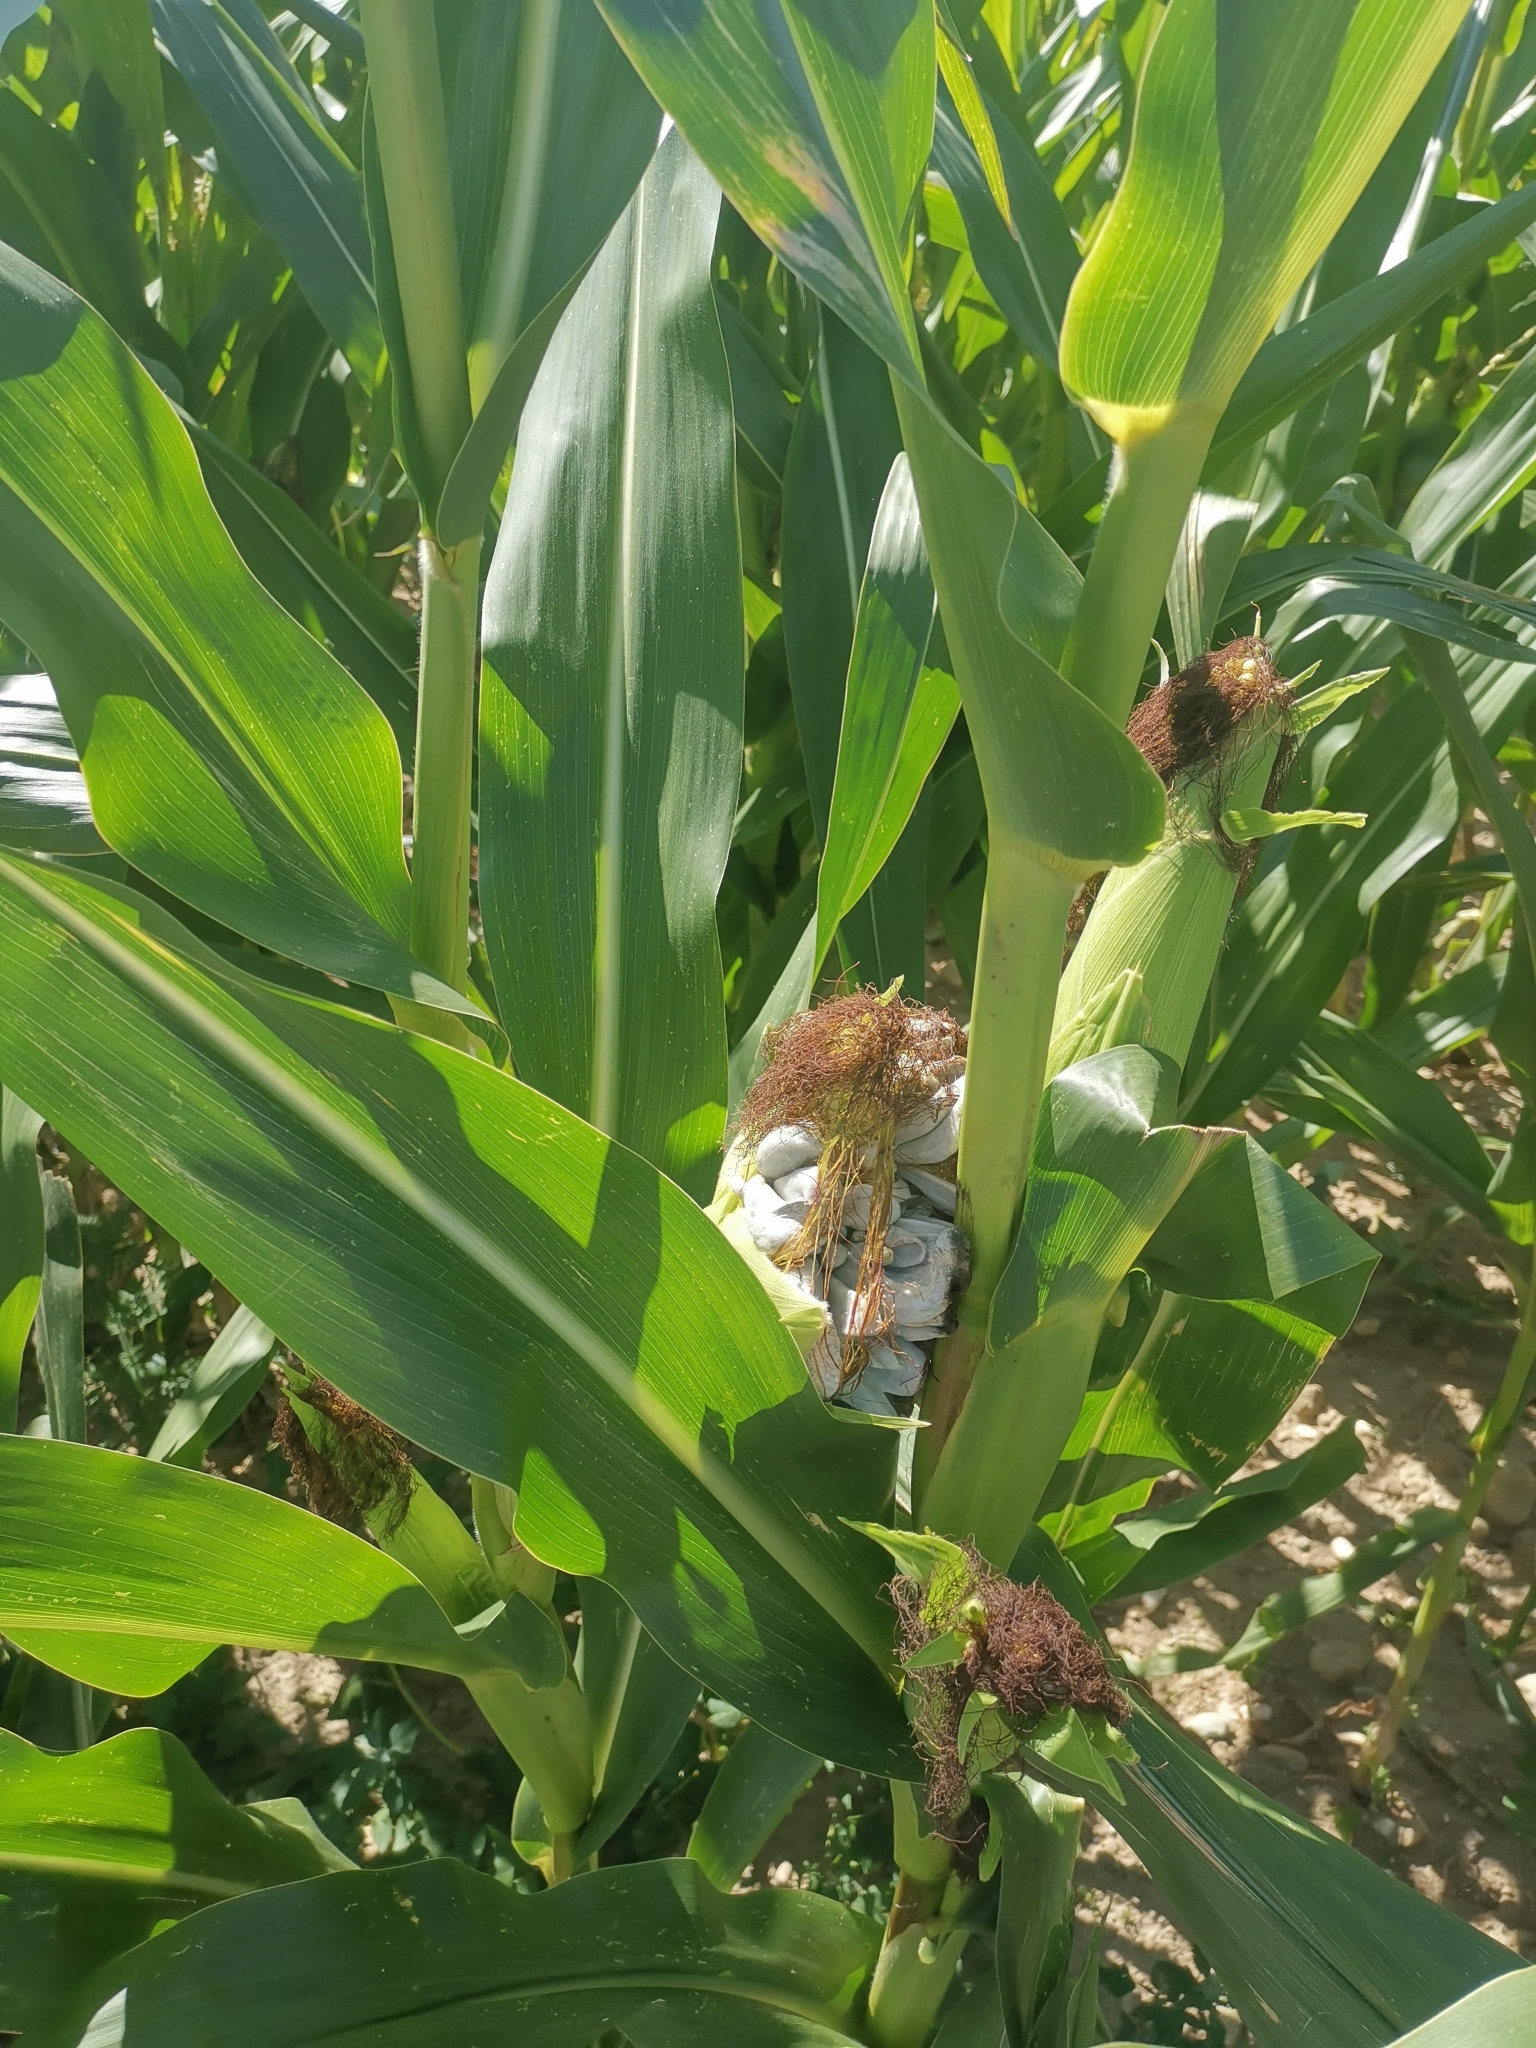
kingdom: Fungi
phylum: Basidiomycota
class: Ustilaginomycetes
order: Ustilaginales
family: Ustilaginaceae
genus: Mycosarcoma
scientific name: Mycosarcoma maydis
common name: Corn smut
